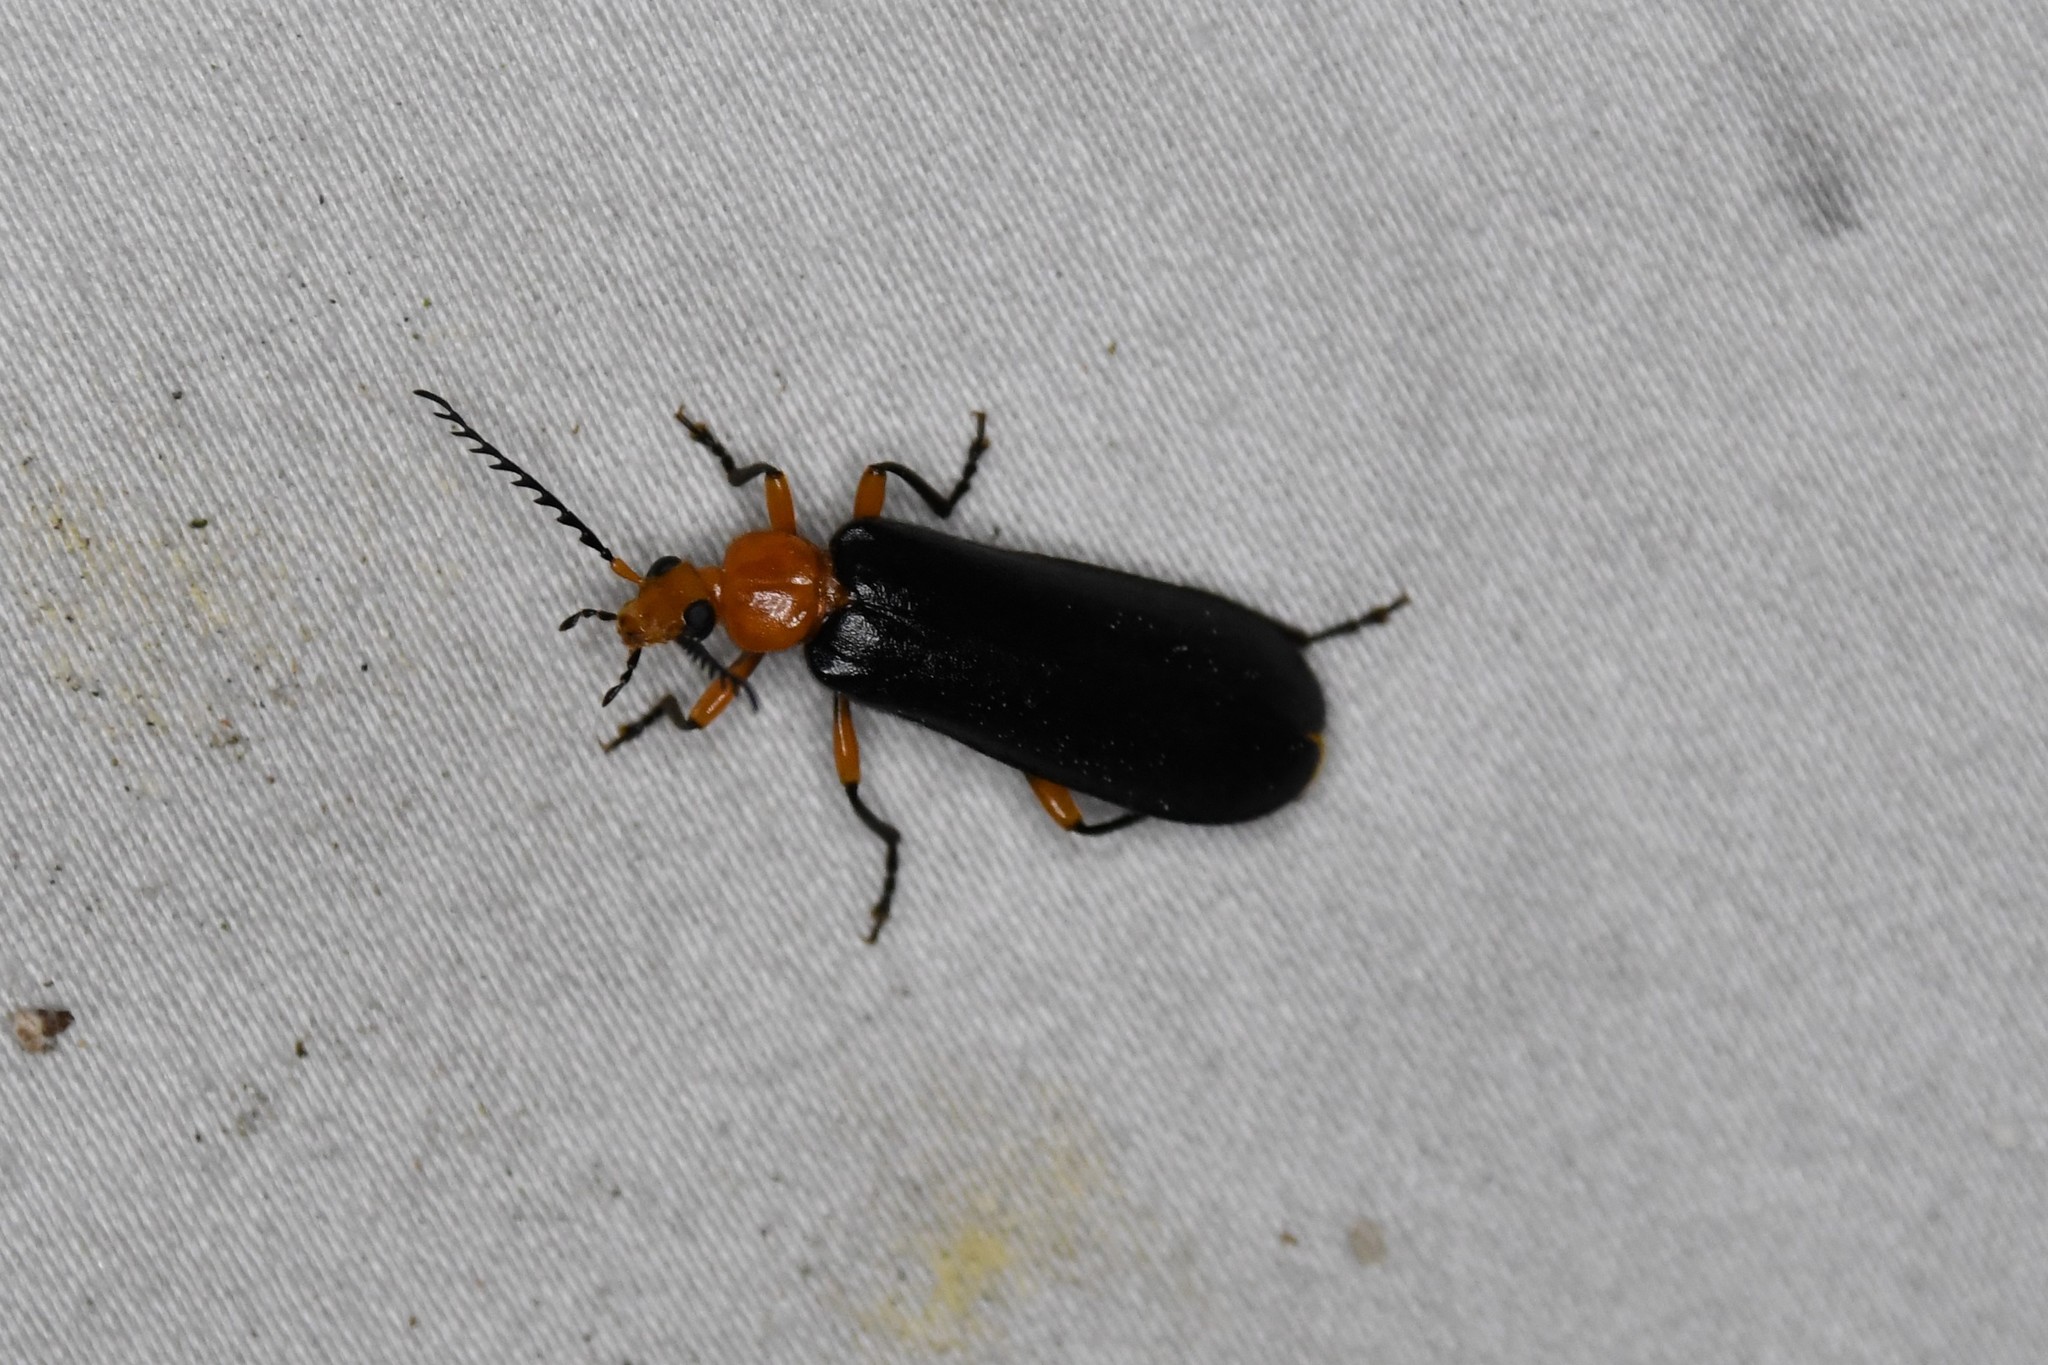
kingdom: Animalia
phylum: Arthropoda
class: Insecta
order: Coleoptera
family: Pyrochroidae
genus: Neopyrochroa
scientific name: Neopyrochroa femoralis
